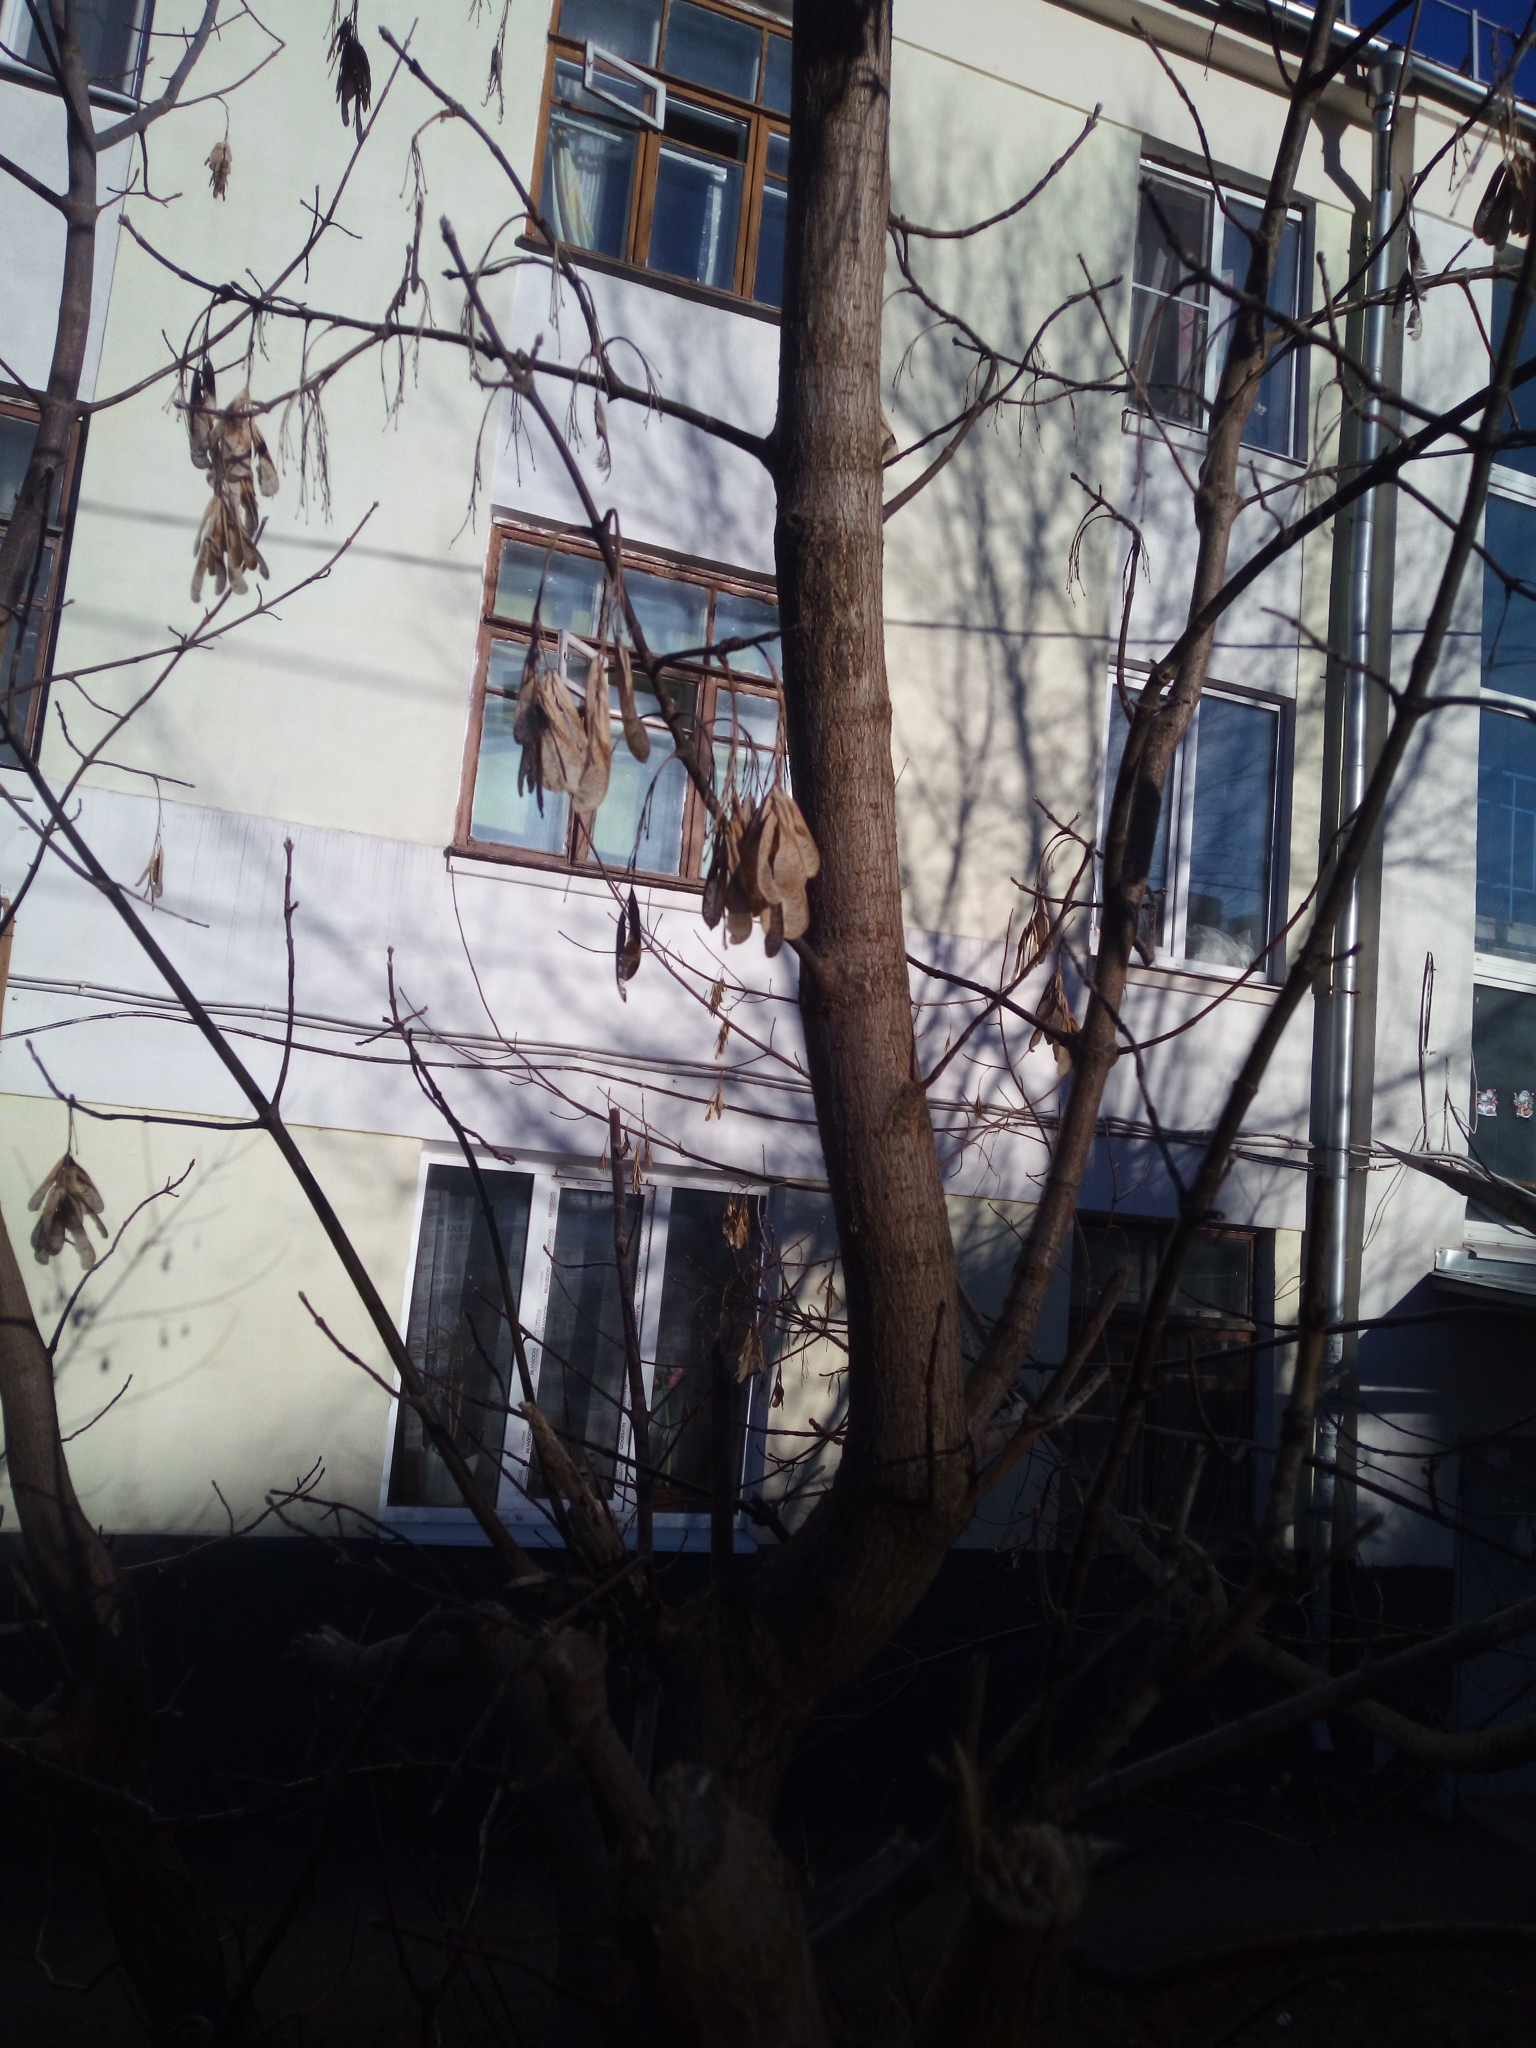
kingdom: Plantae
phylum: Tracheophyta
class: Magnoliopsida
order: Sapindales
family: Sapindaceae
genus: Acer
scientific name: Acer negundo
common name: Ashleaf maple
